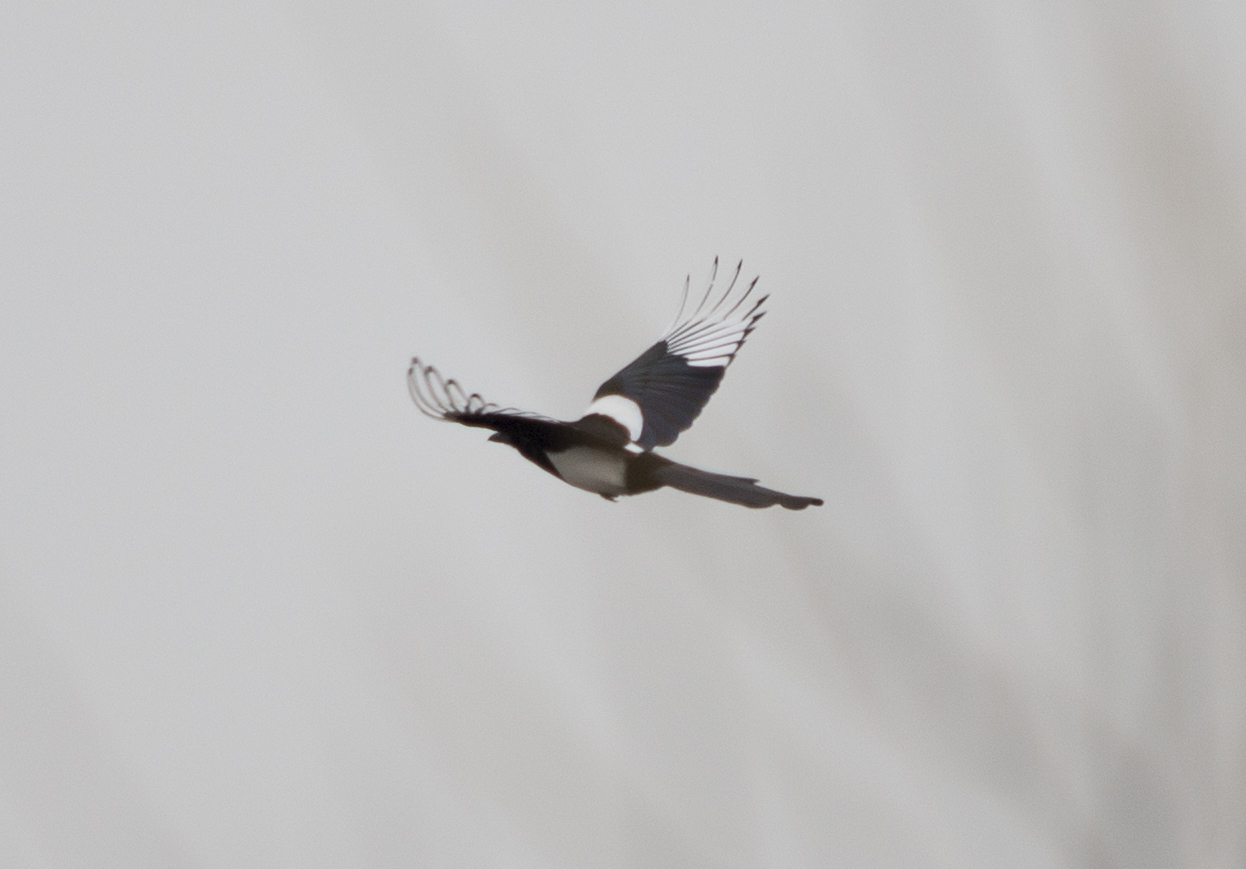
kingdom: Animalia
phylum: Chordata
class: Aves
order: Passeriformes
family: Corvidae
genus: Pica
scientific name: Pica pica
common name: Eurasian magpie
